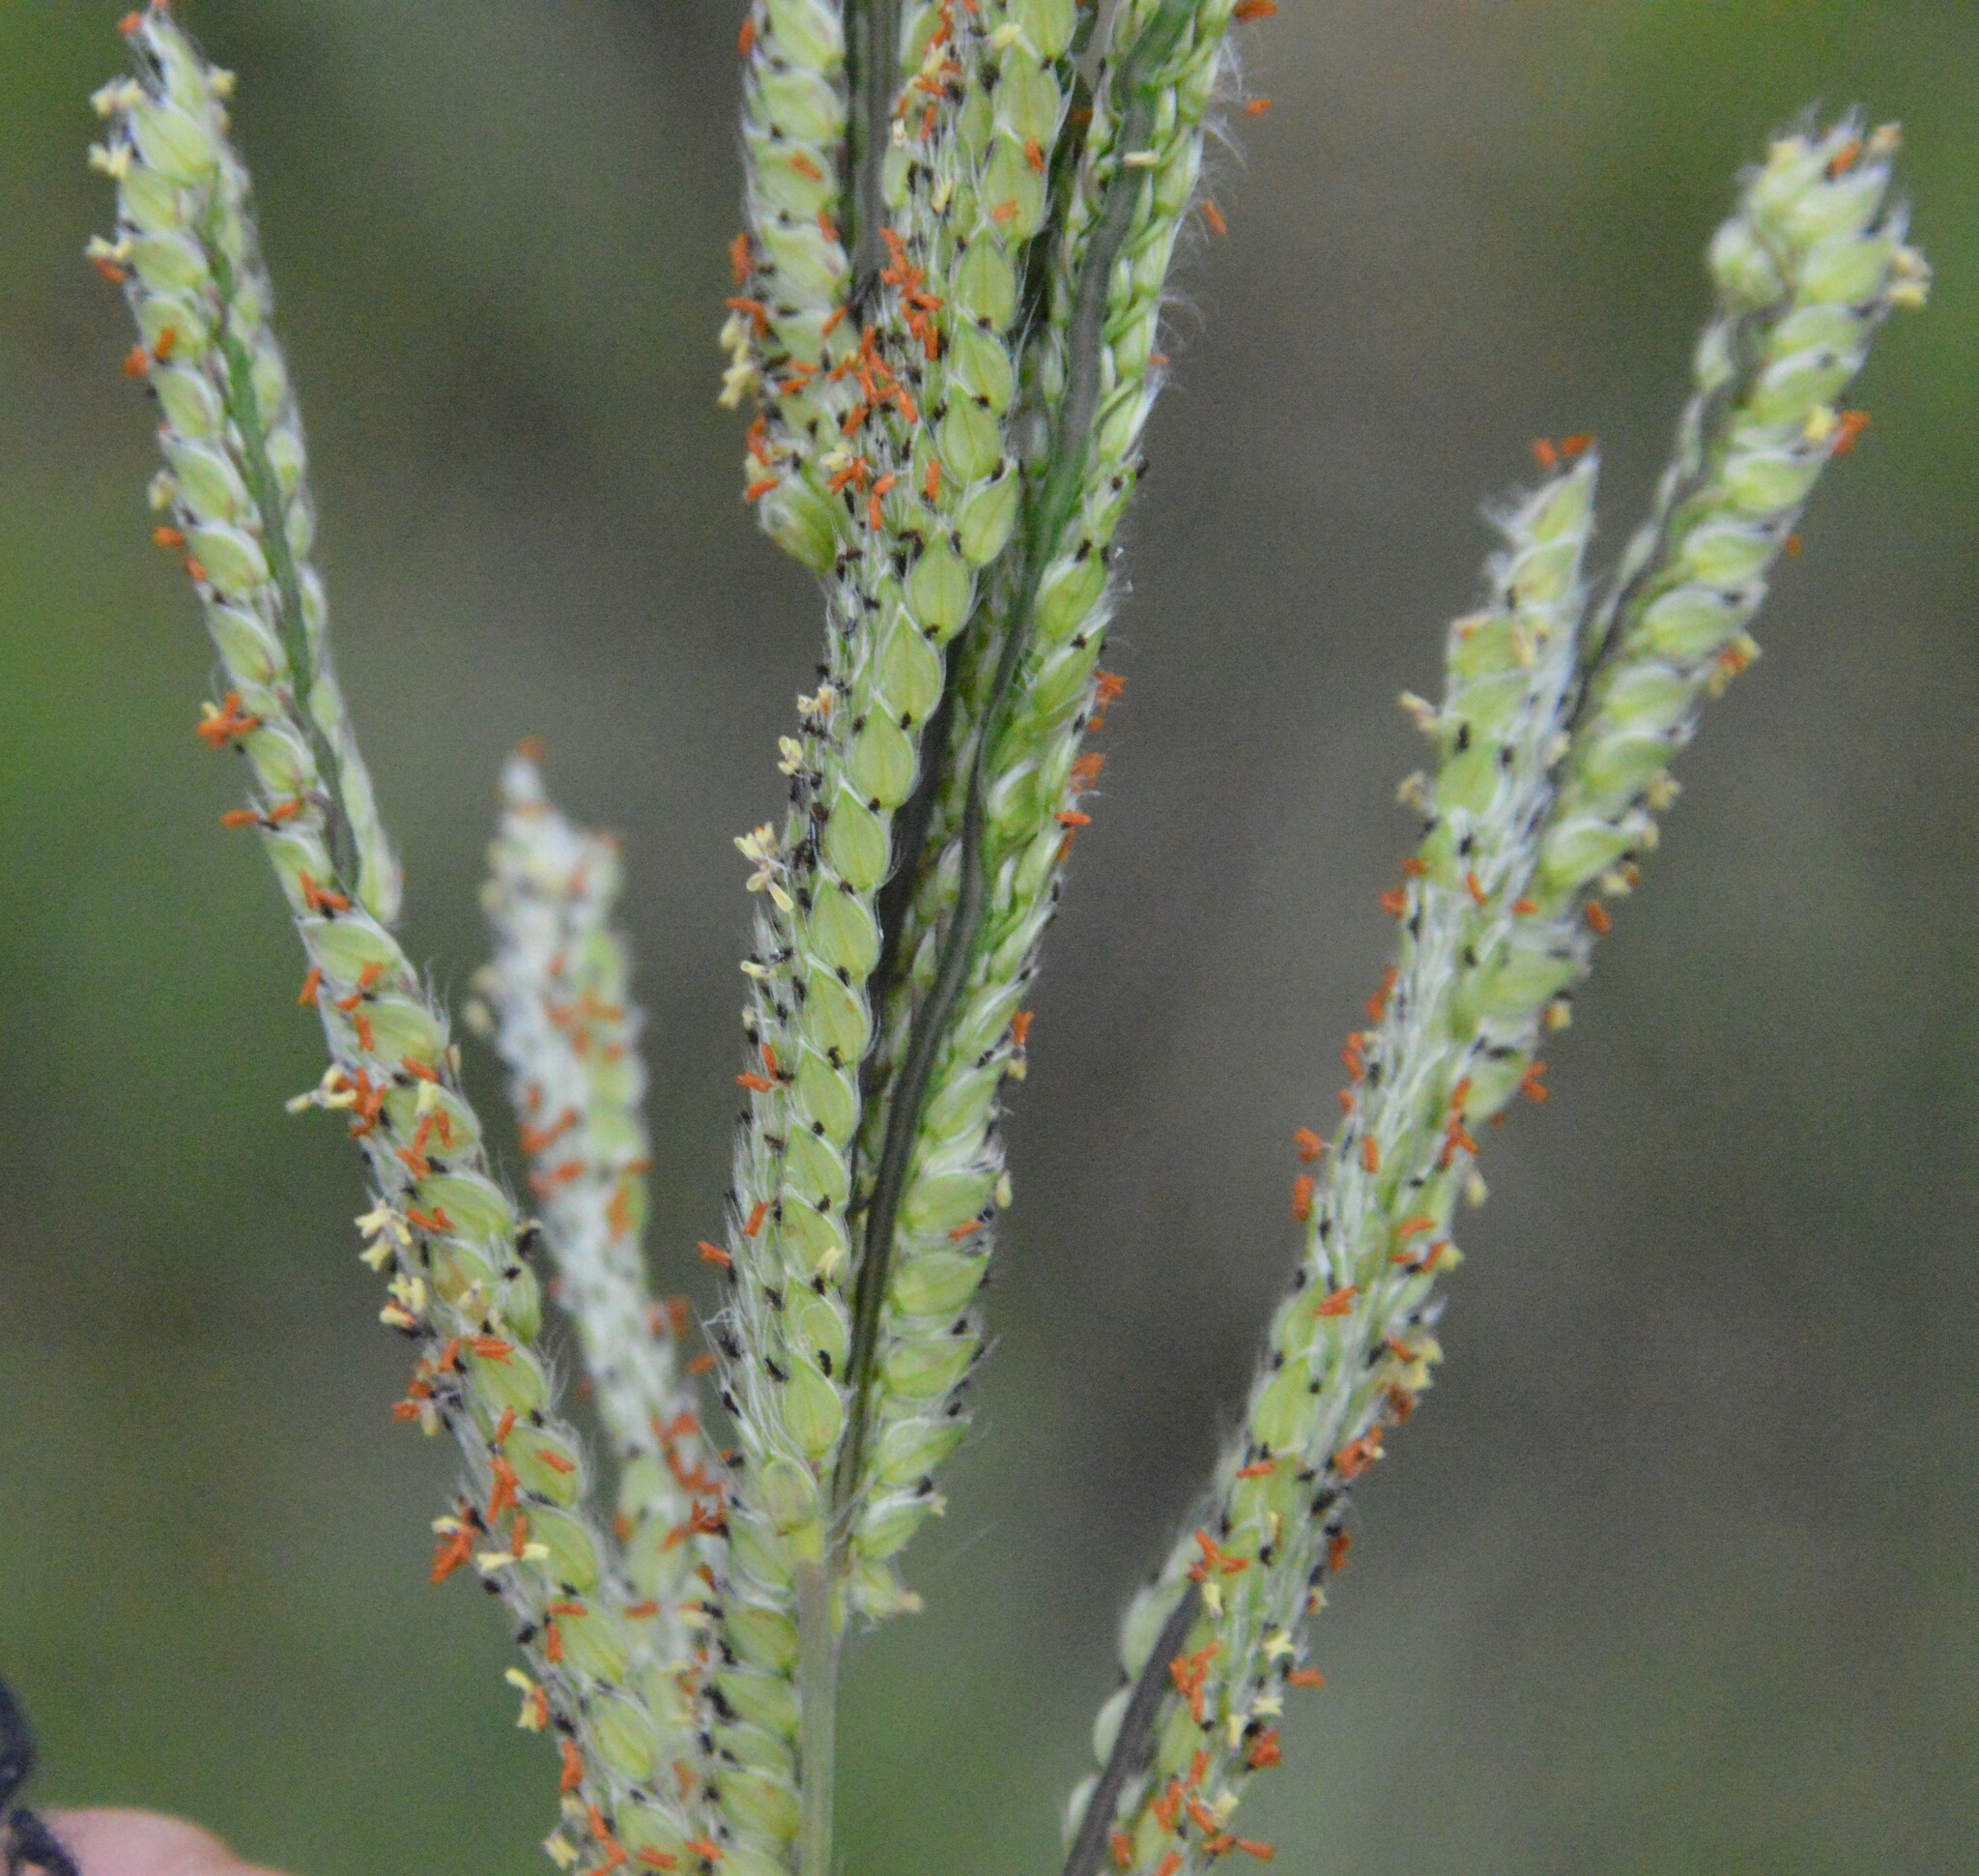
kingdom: Plantae
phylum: Tracheophyta
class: Liliopsida
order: Poales
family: Poaceae
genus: Paspalum
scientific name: Paspalum urvillei
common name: Vasey's grass
